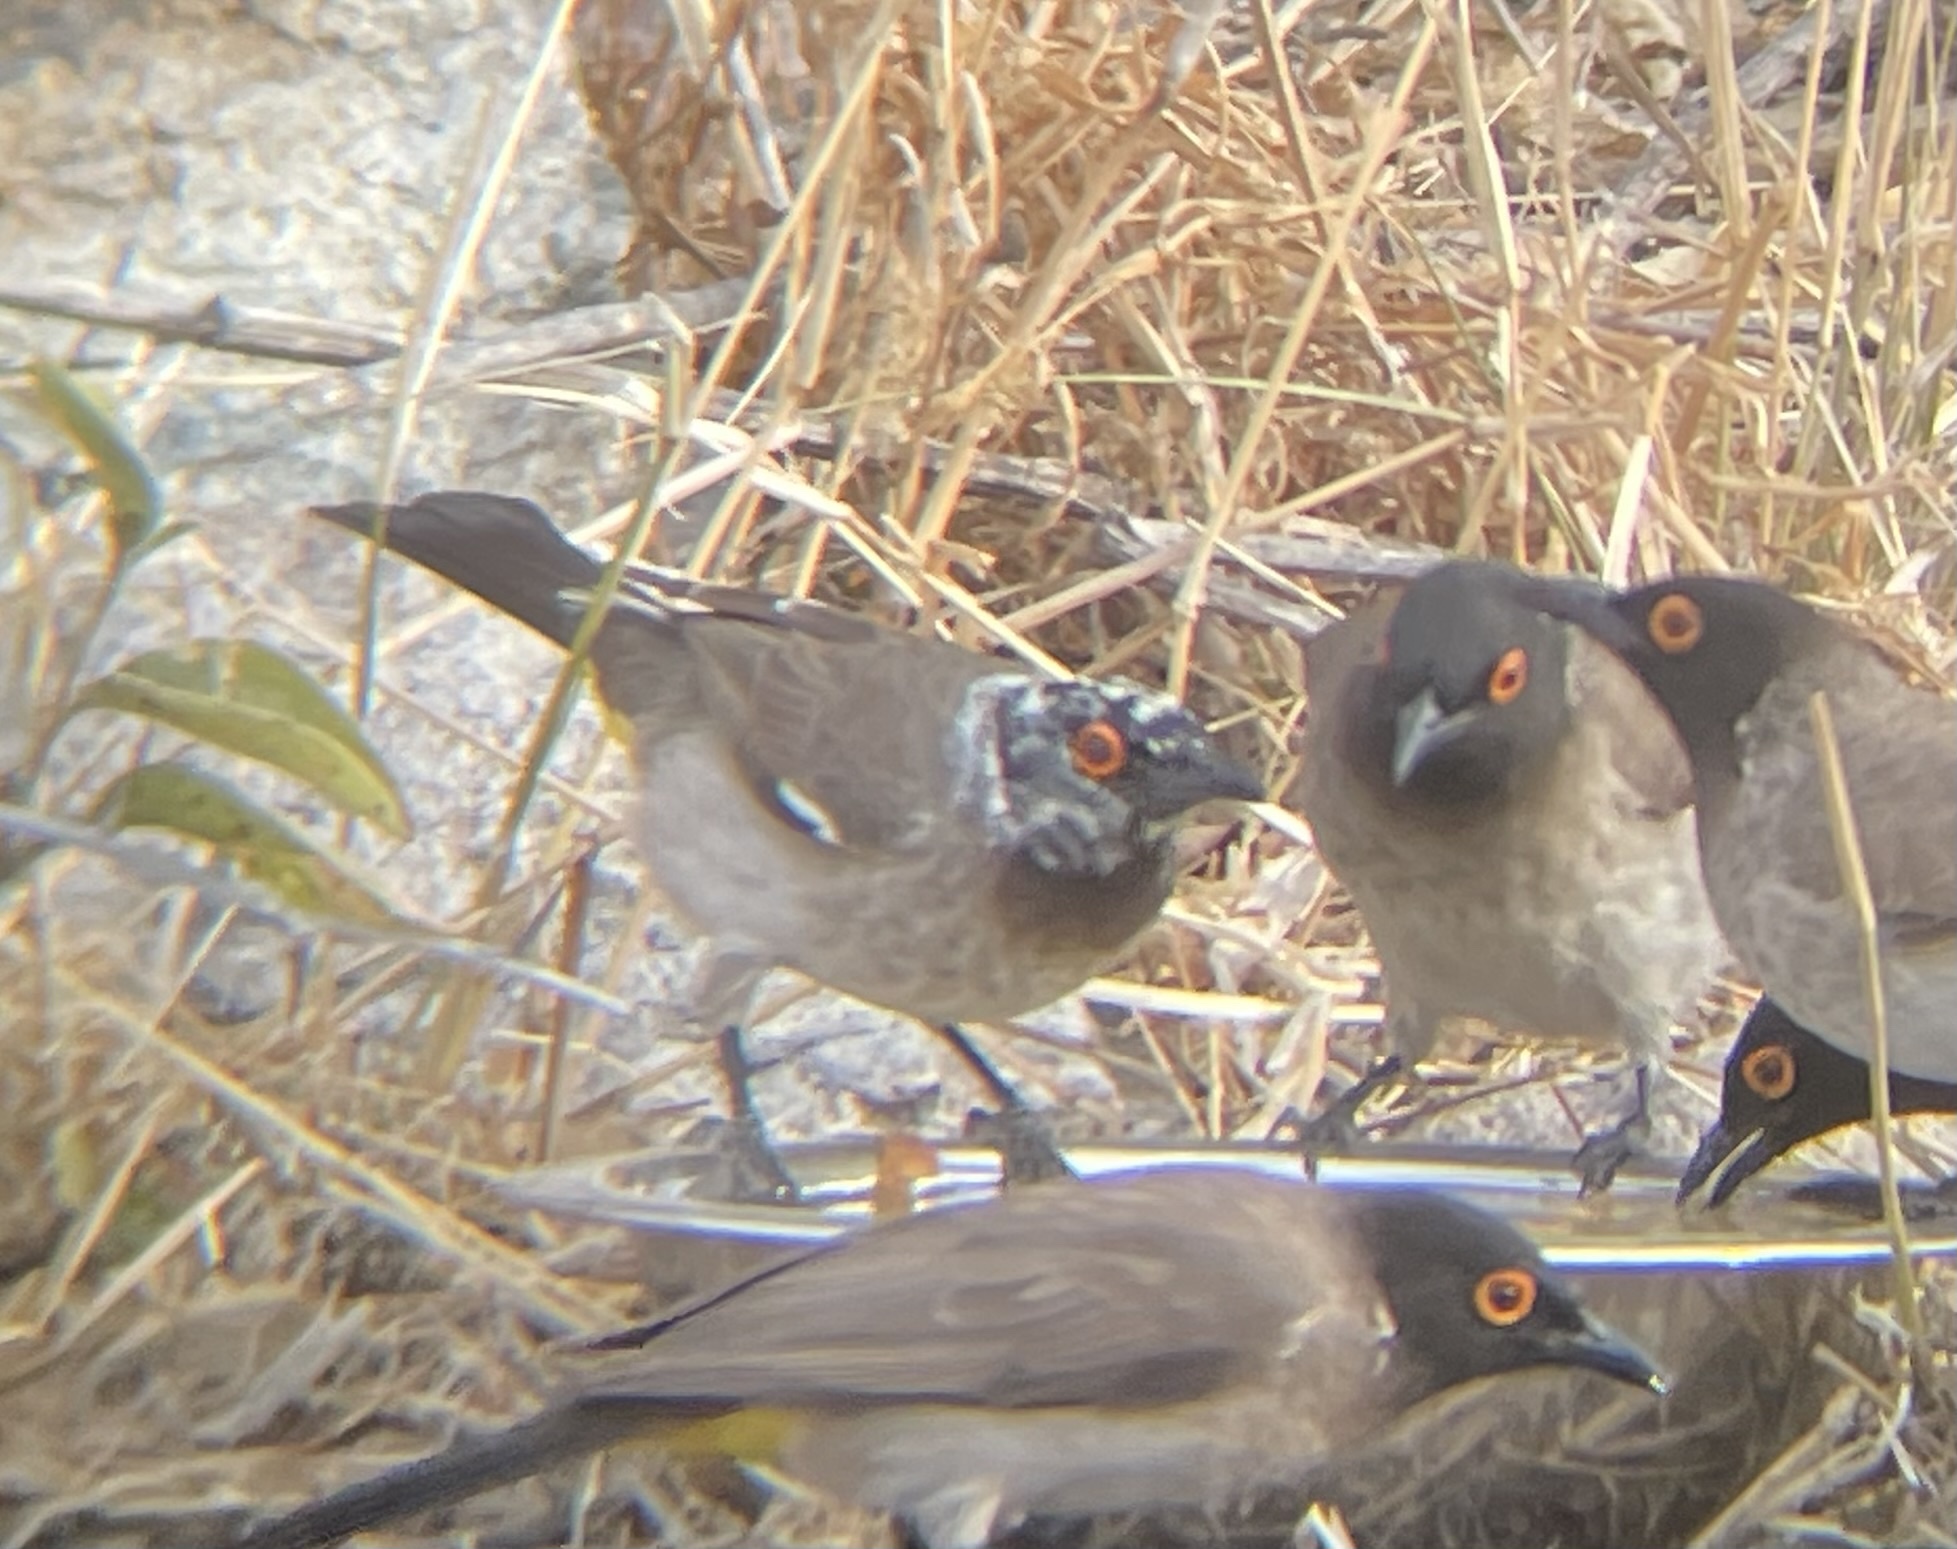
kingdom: Animalia
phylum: Chordata
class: Aves
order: Passeriformes
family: Pycnonotidae
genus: Pycnonotus
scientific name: Pycnonotus nigricans
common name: African red-eyed bulbul
